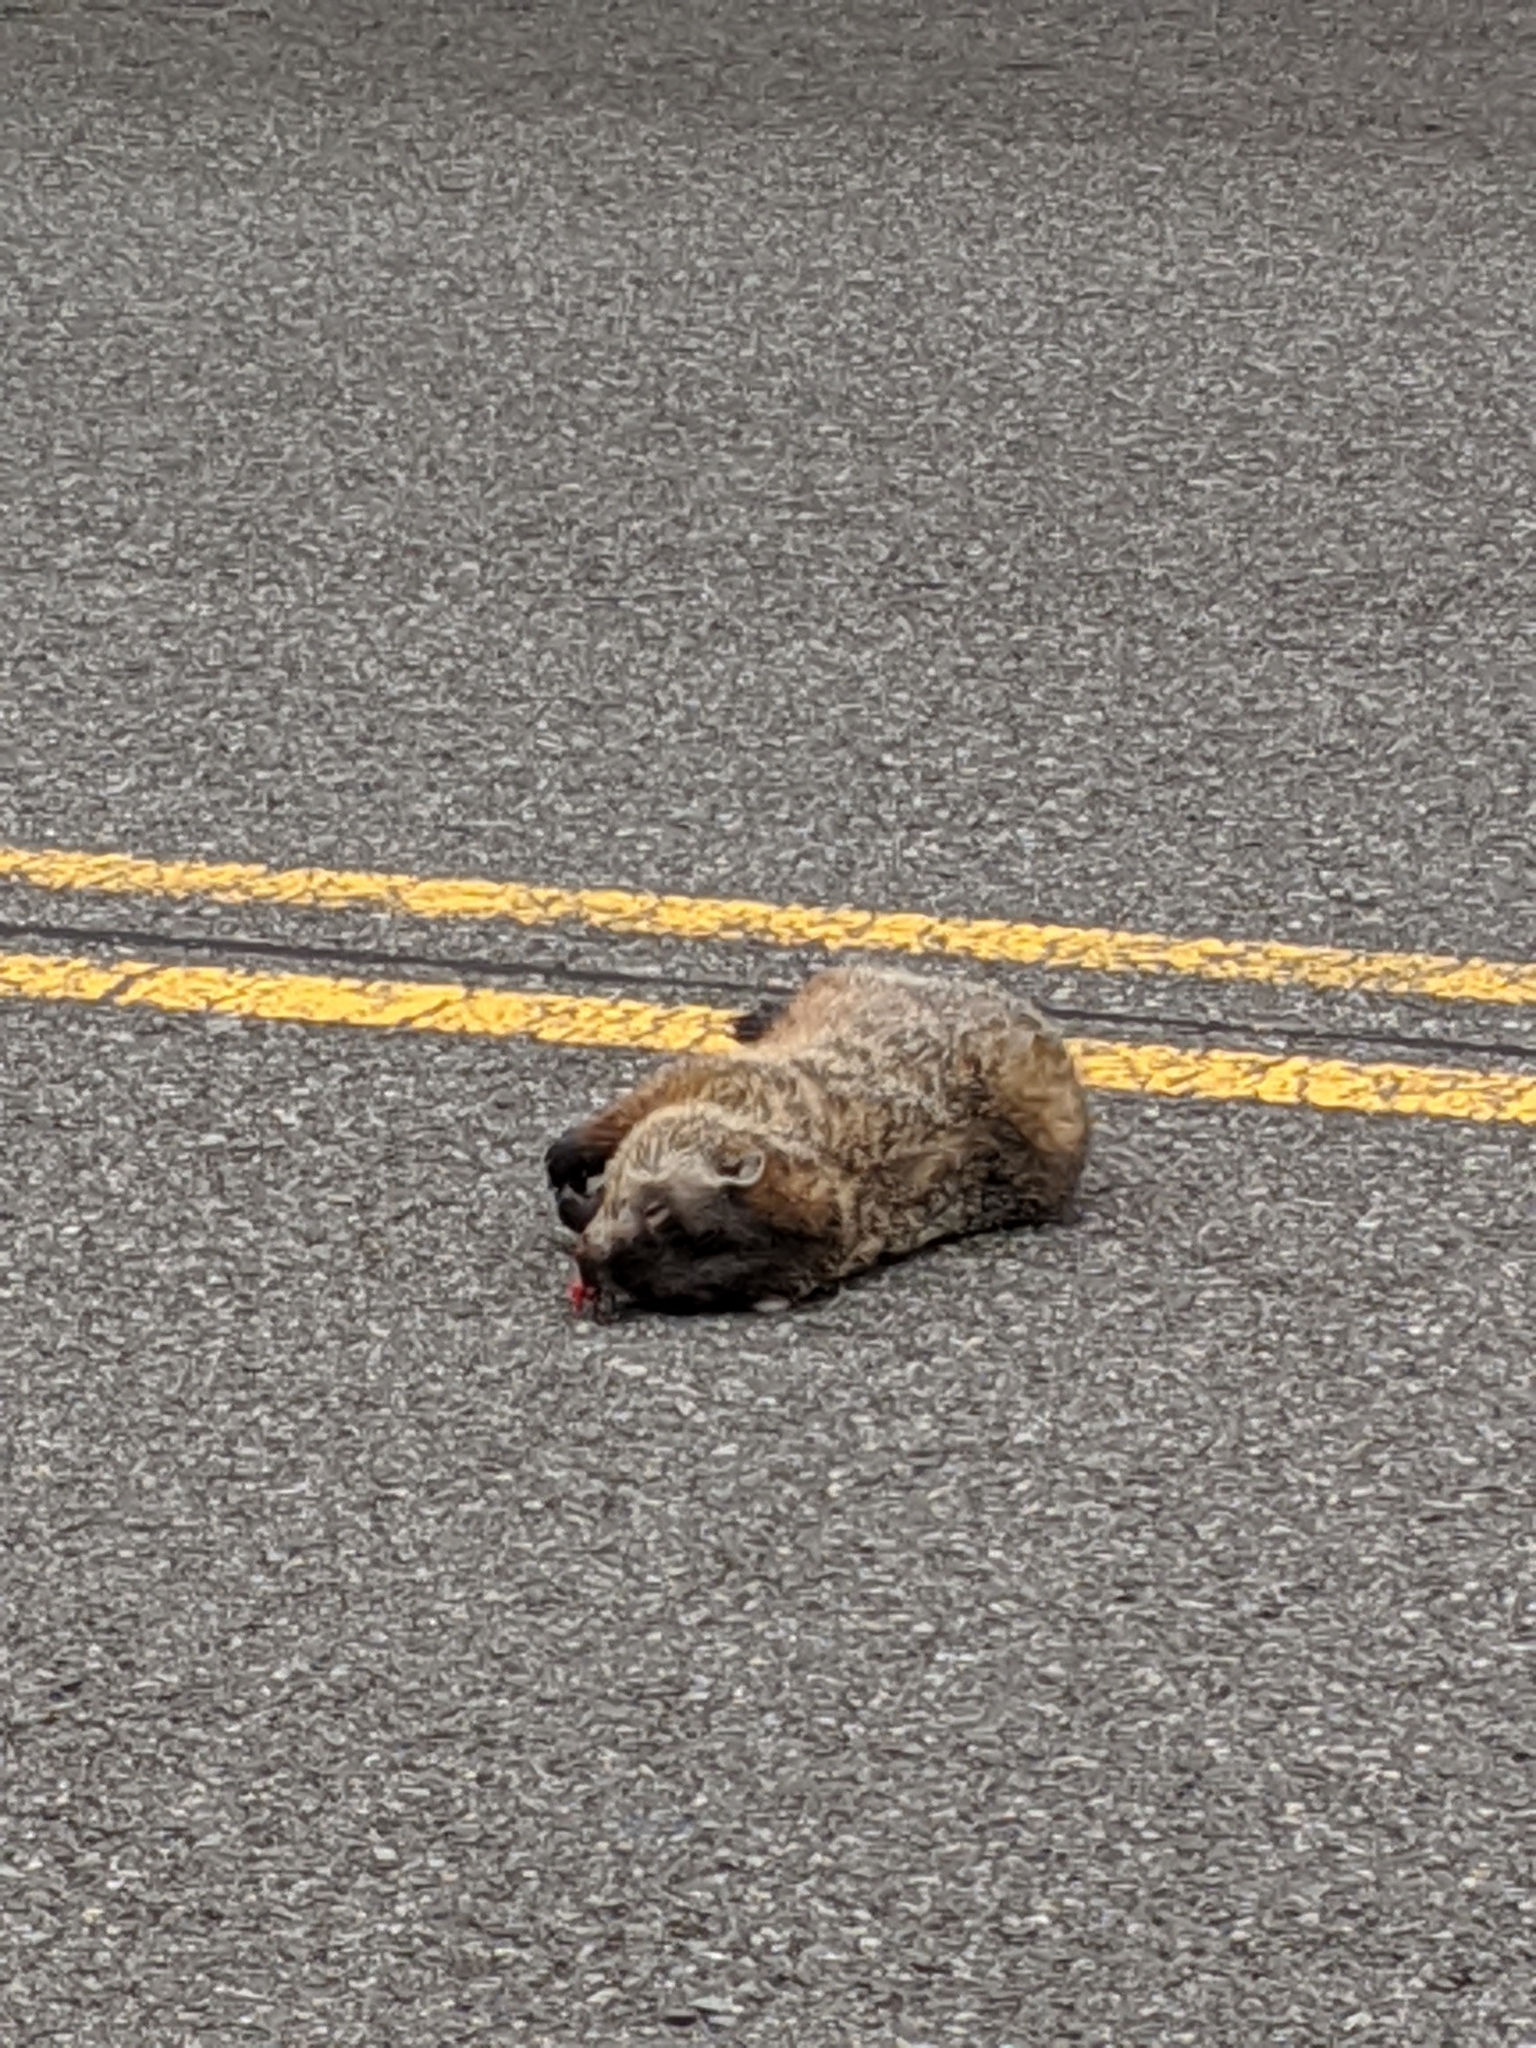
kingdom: Animalia
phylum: Chordata
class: Mammalia
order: Rodentia
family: Sciuridae
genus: Marmota
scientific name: Marmota monax
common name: Groundhog
